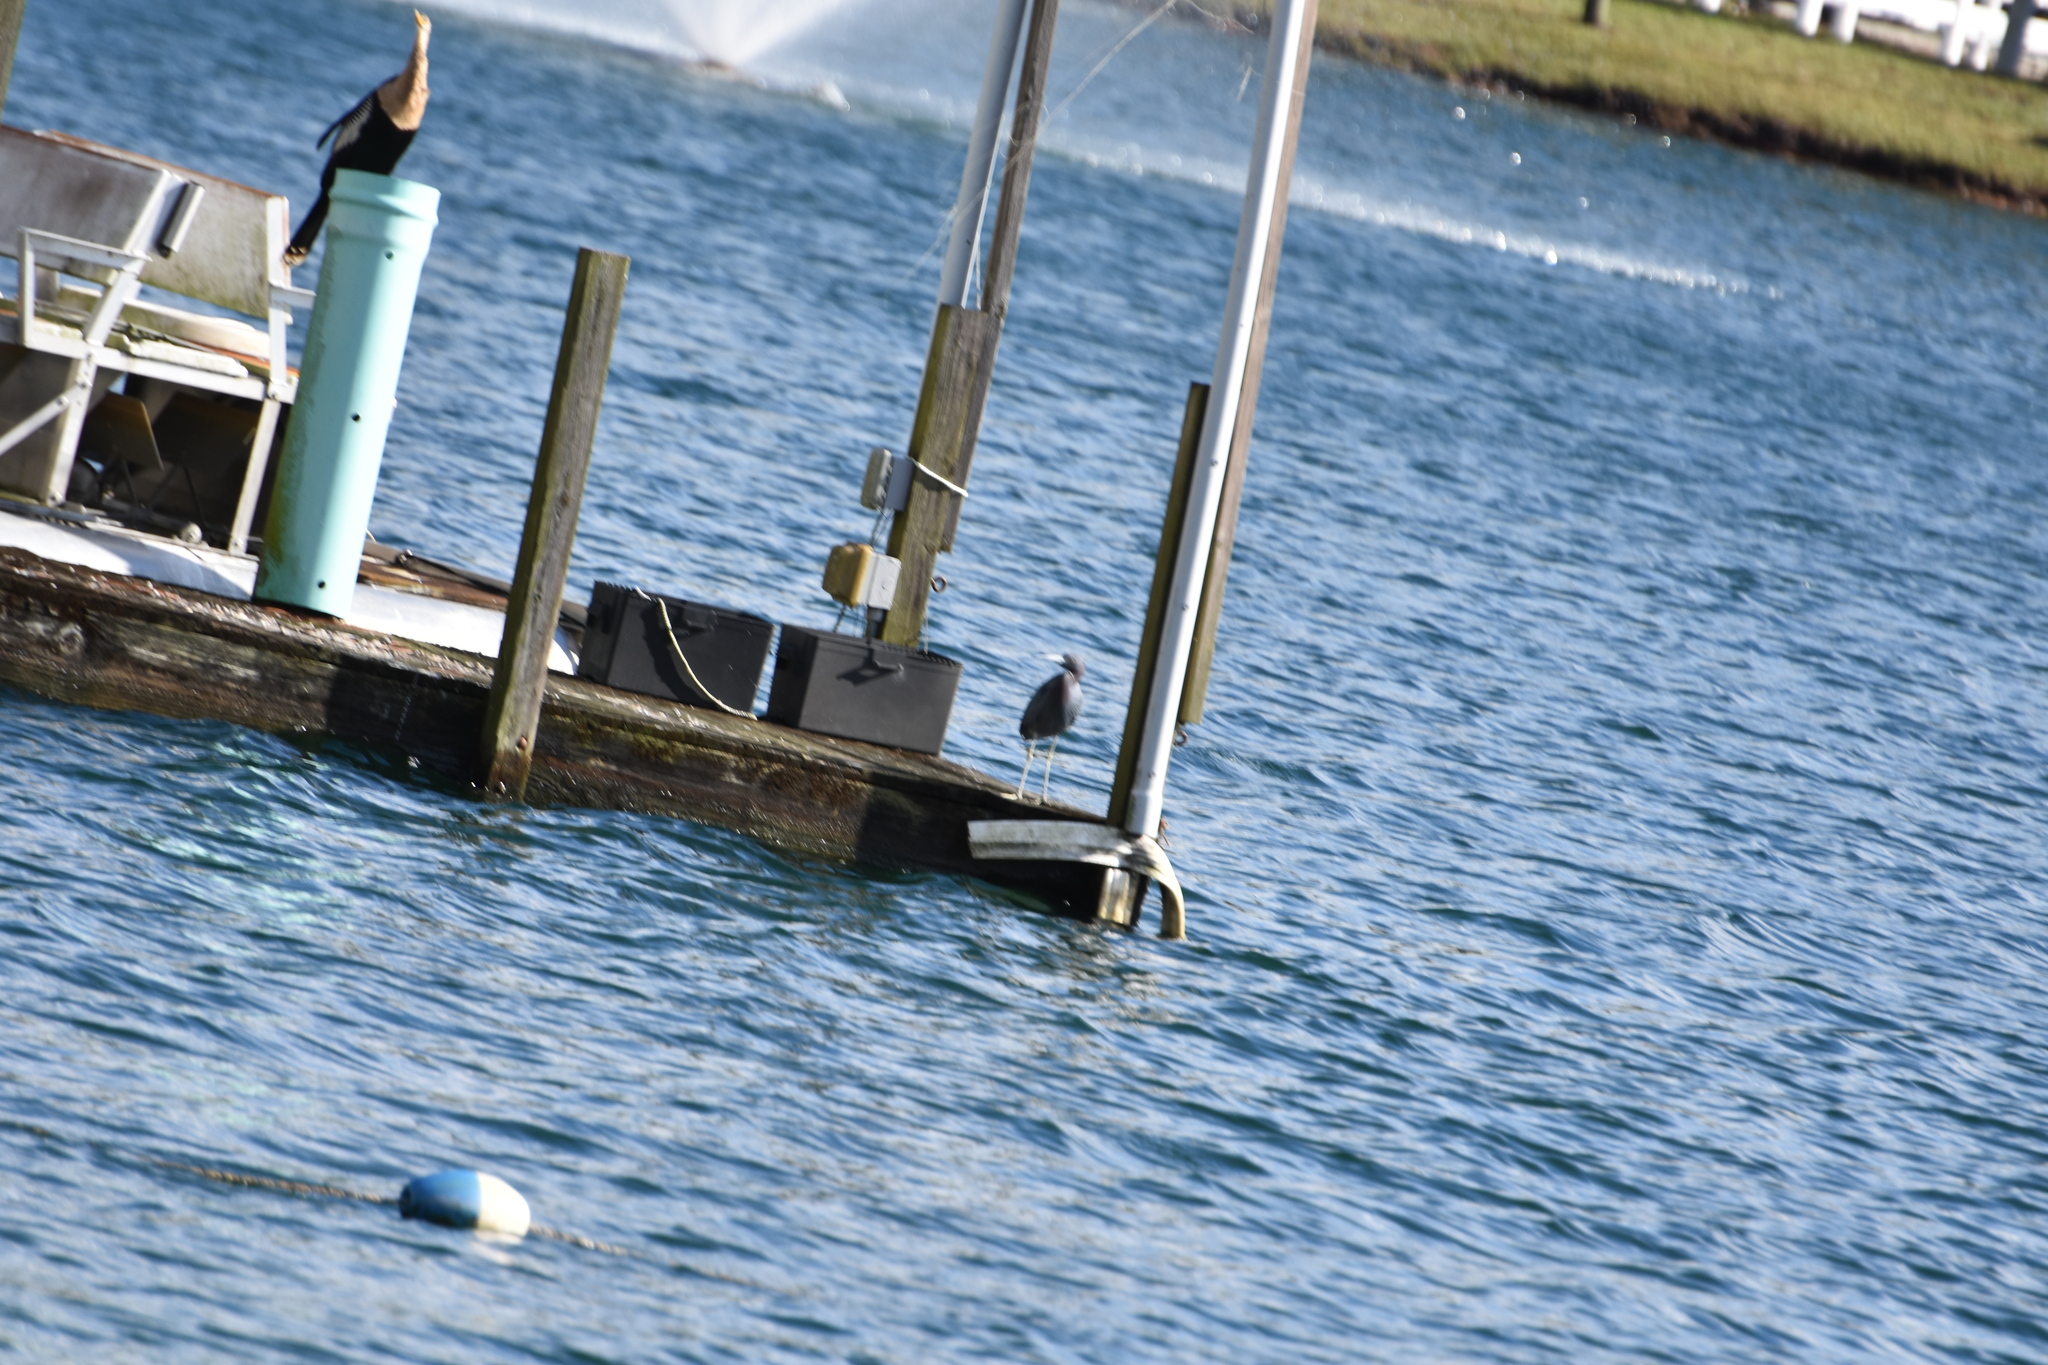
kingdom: Animalia
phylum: Chordata
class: Aves
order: Pelecaniformes
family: Ardeidae
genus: Egretta
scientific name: Egretta caerulea
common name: Little blue heron
